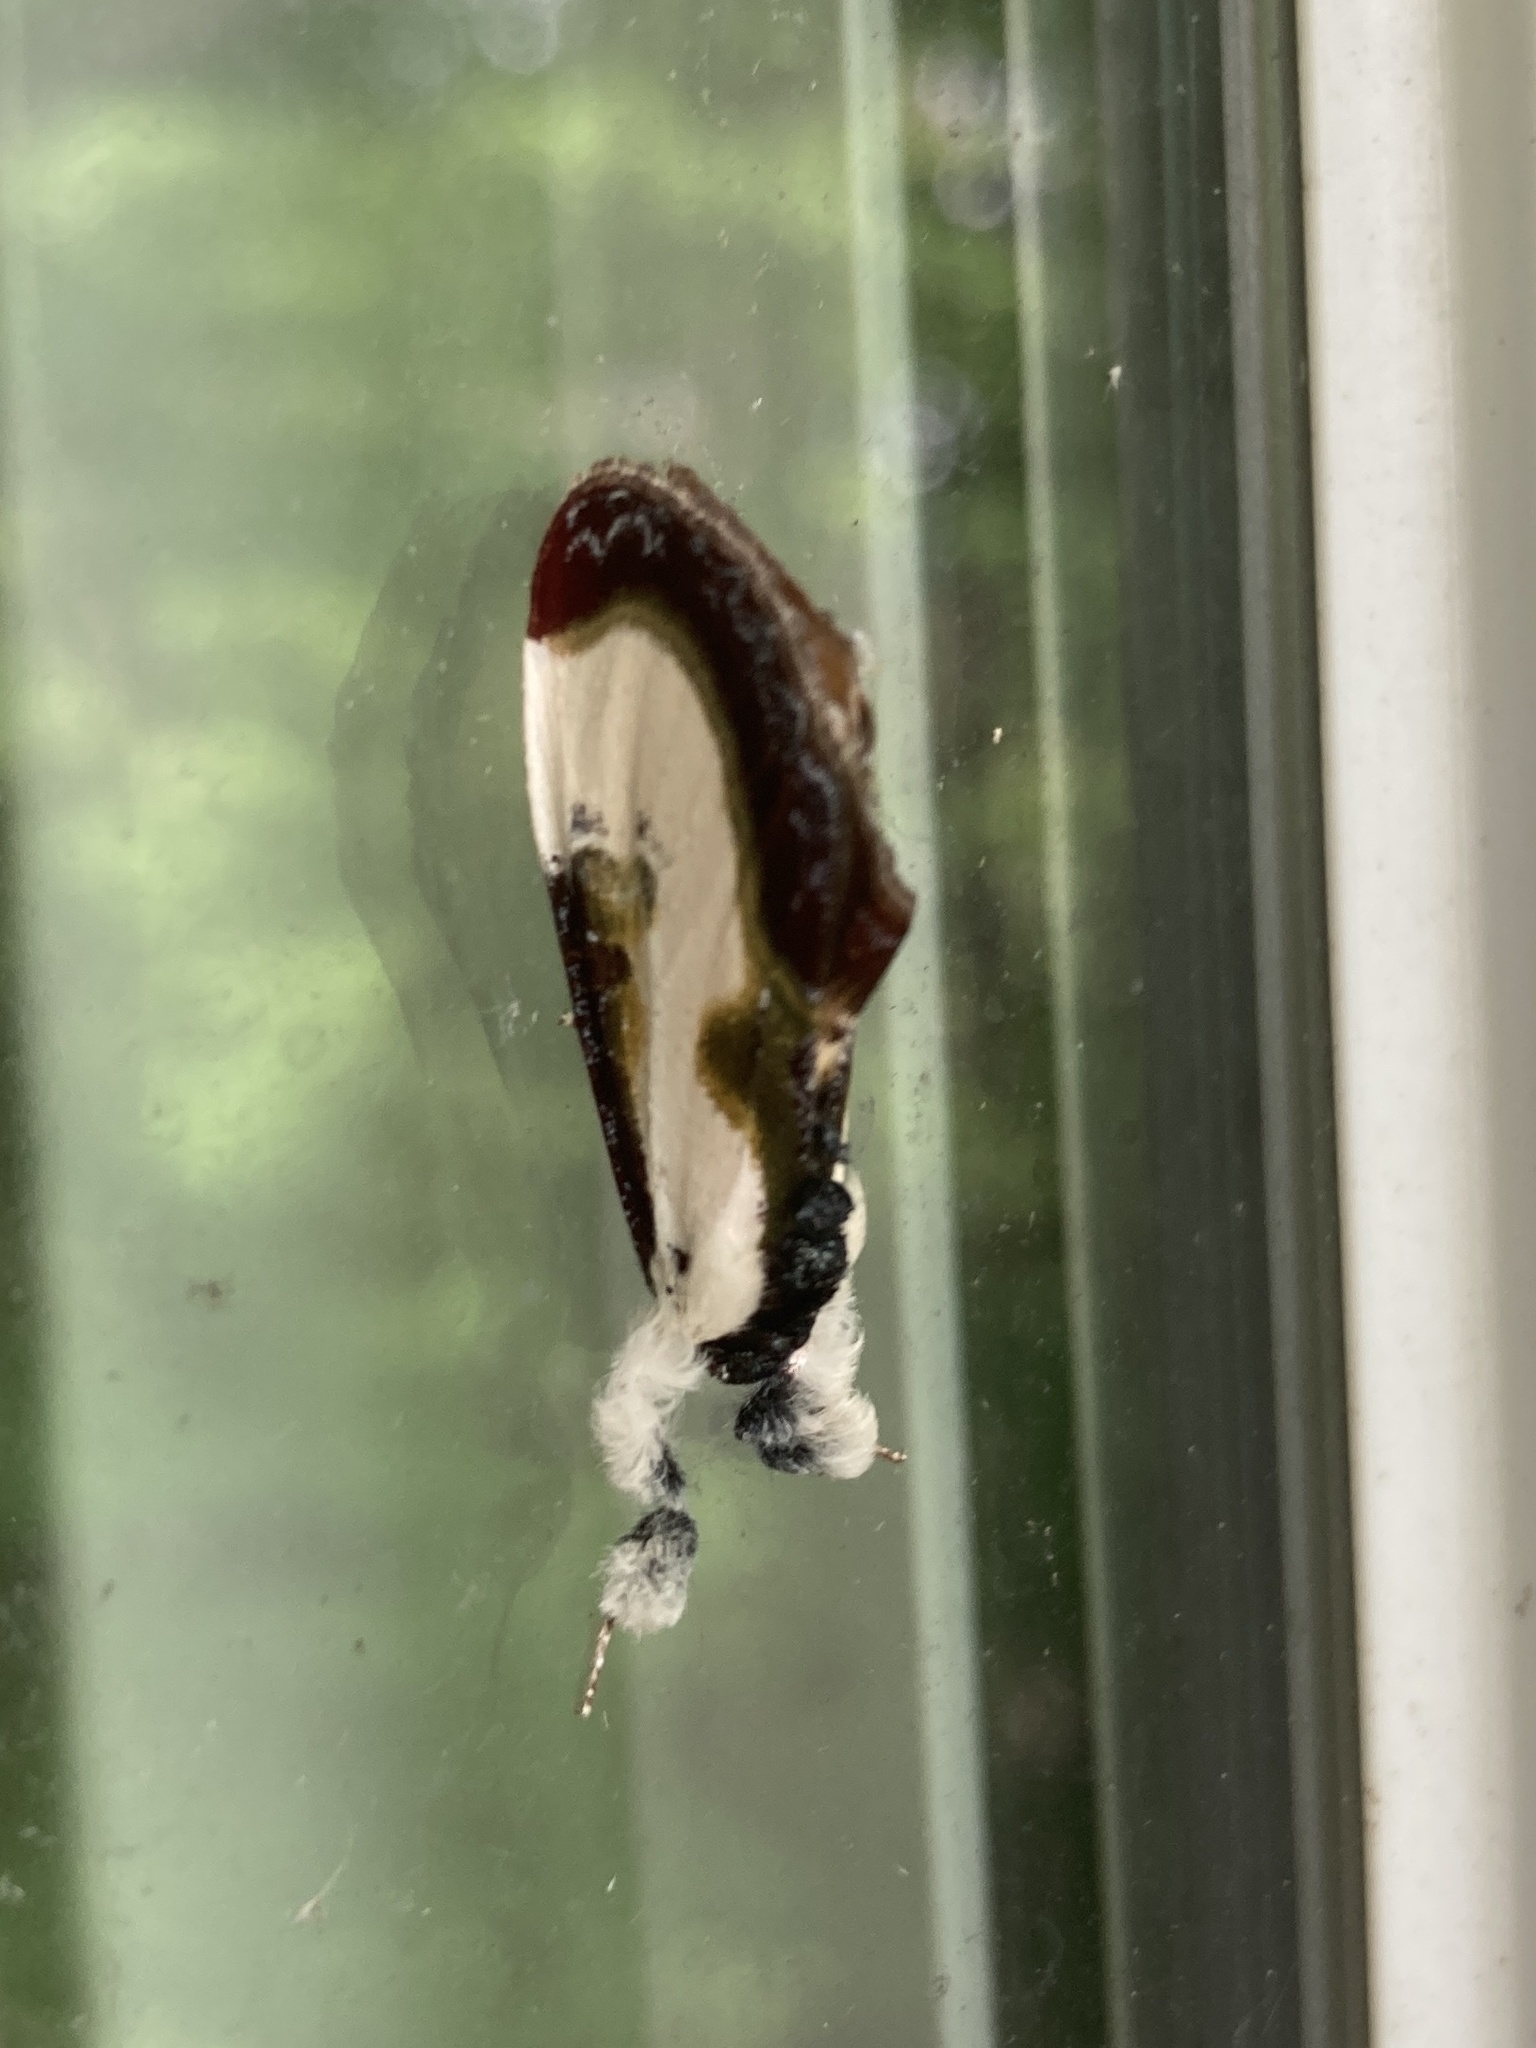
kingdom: Animalia
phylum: Arthropoda
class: Insecta
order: Lepidoptera
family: Noctuidae
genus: Eudryas
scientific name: Eudryas grata
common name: Beautiful wood-nymph
